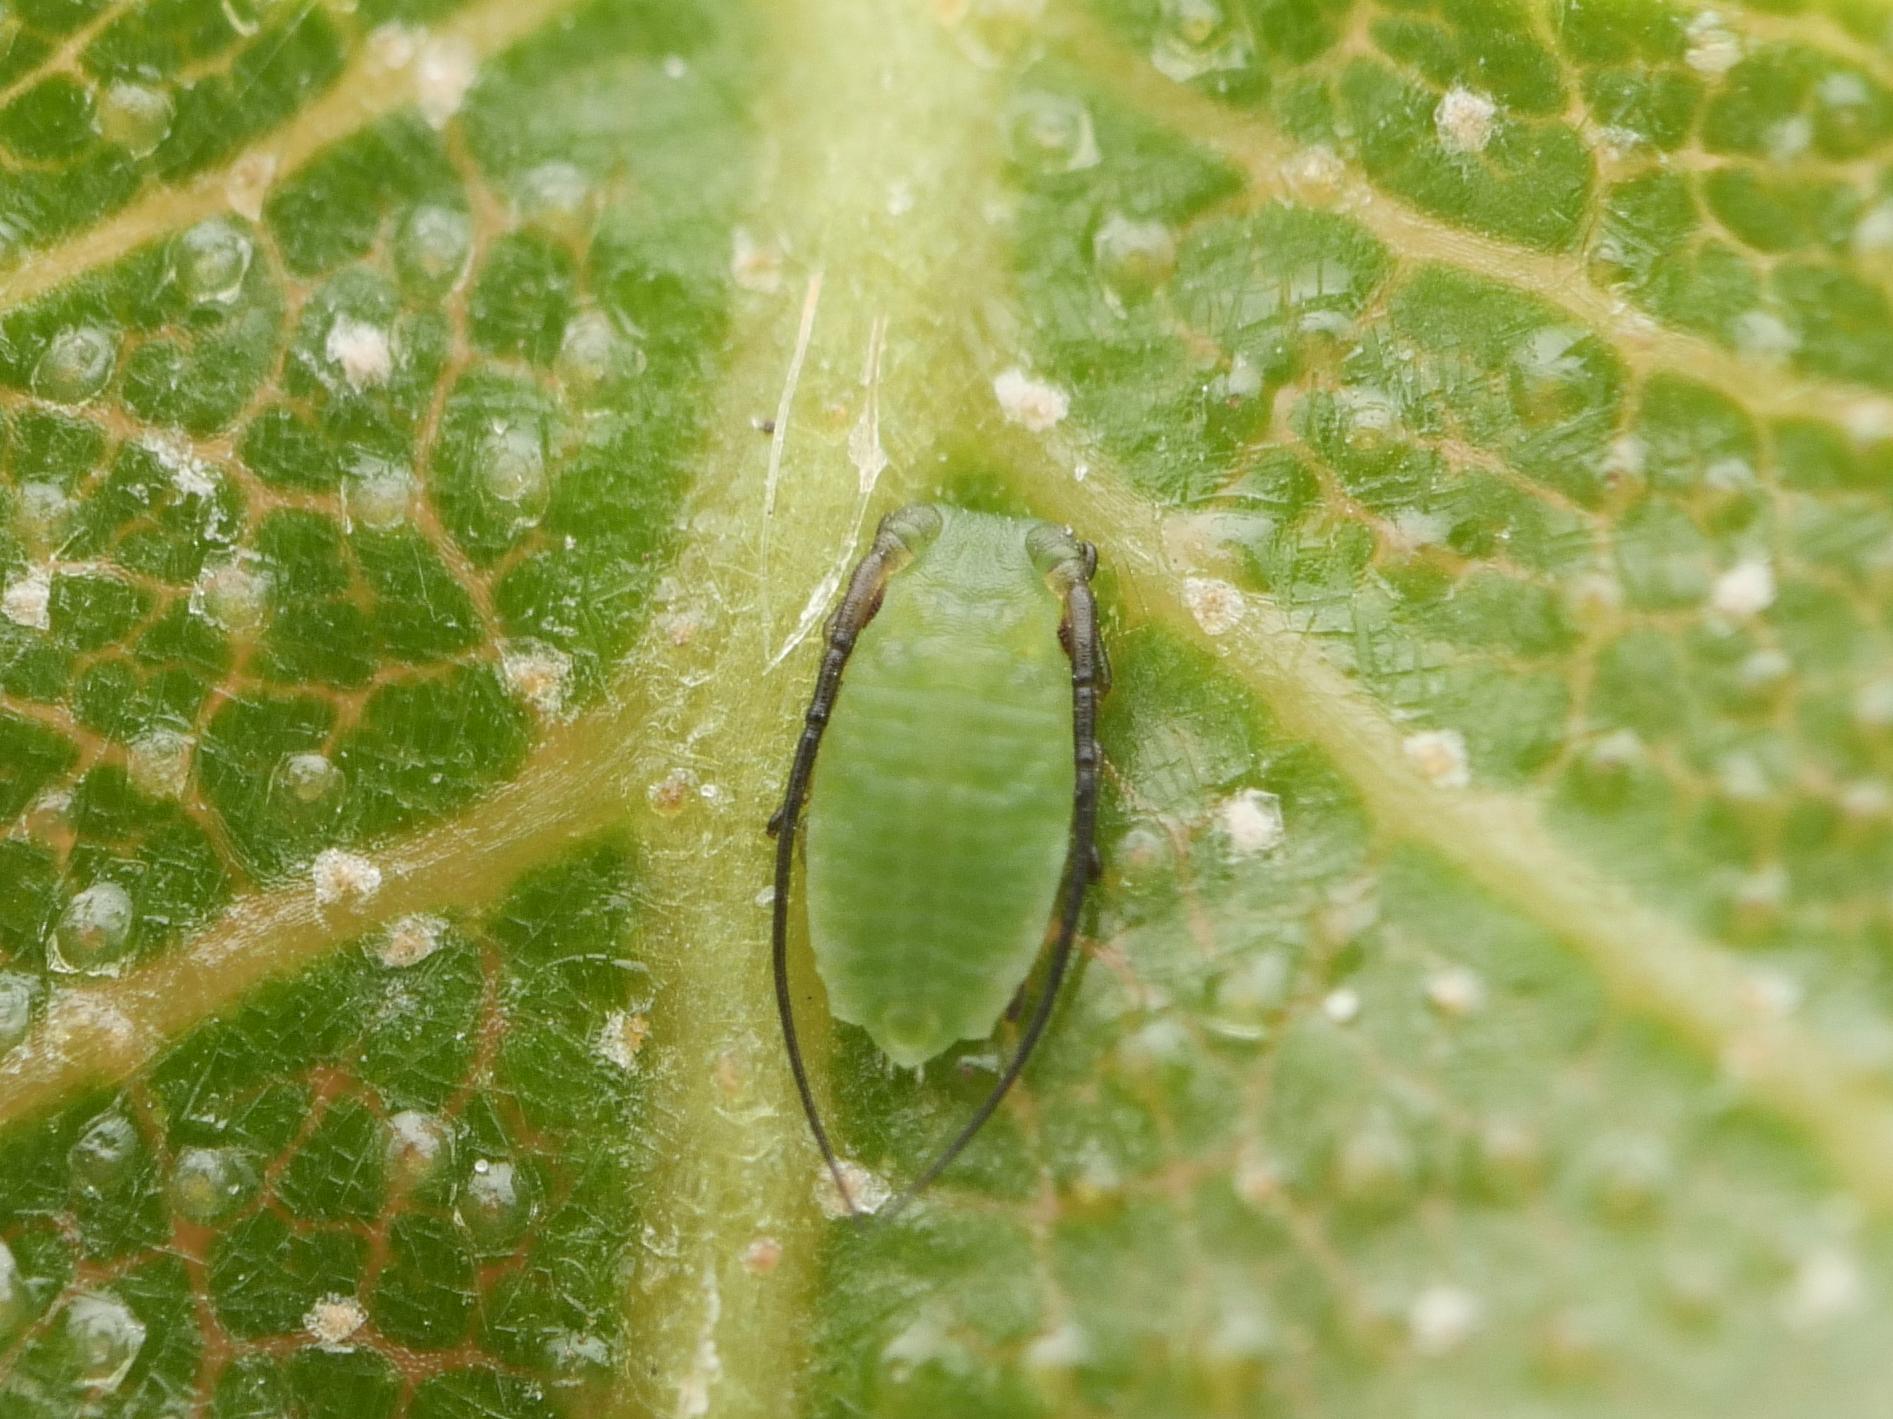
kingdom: Animalia
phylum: Arthropoda
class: Insecta
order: Hemiptera
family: Aphididae
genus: Monaphis
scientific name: Monaphis antennata
